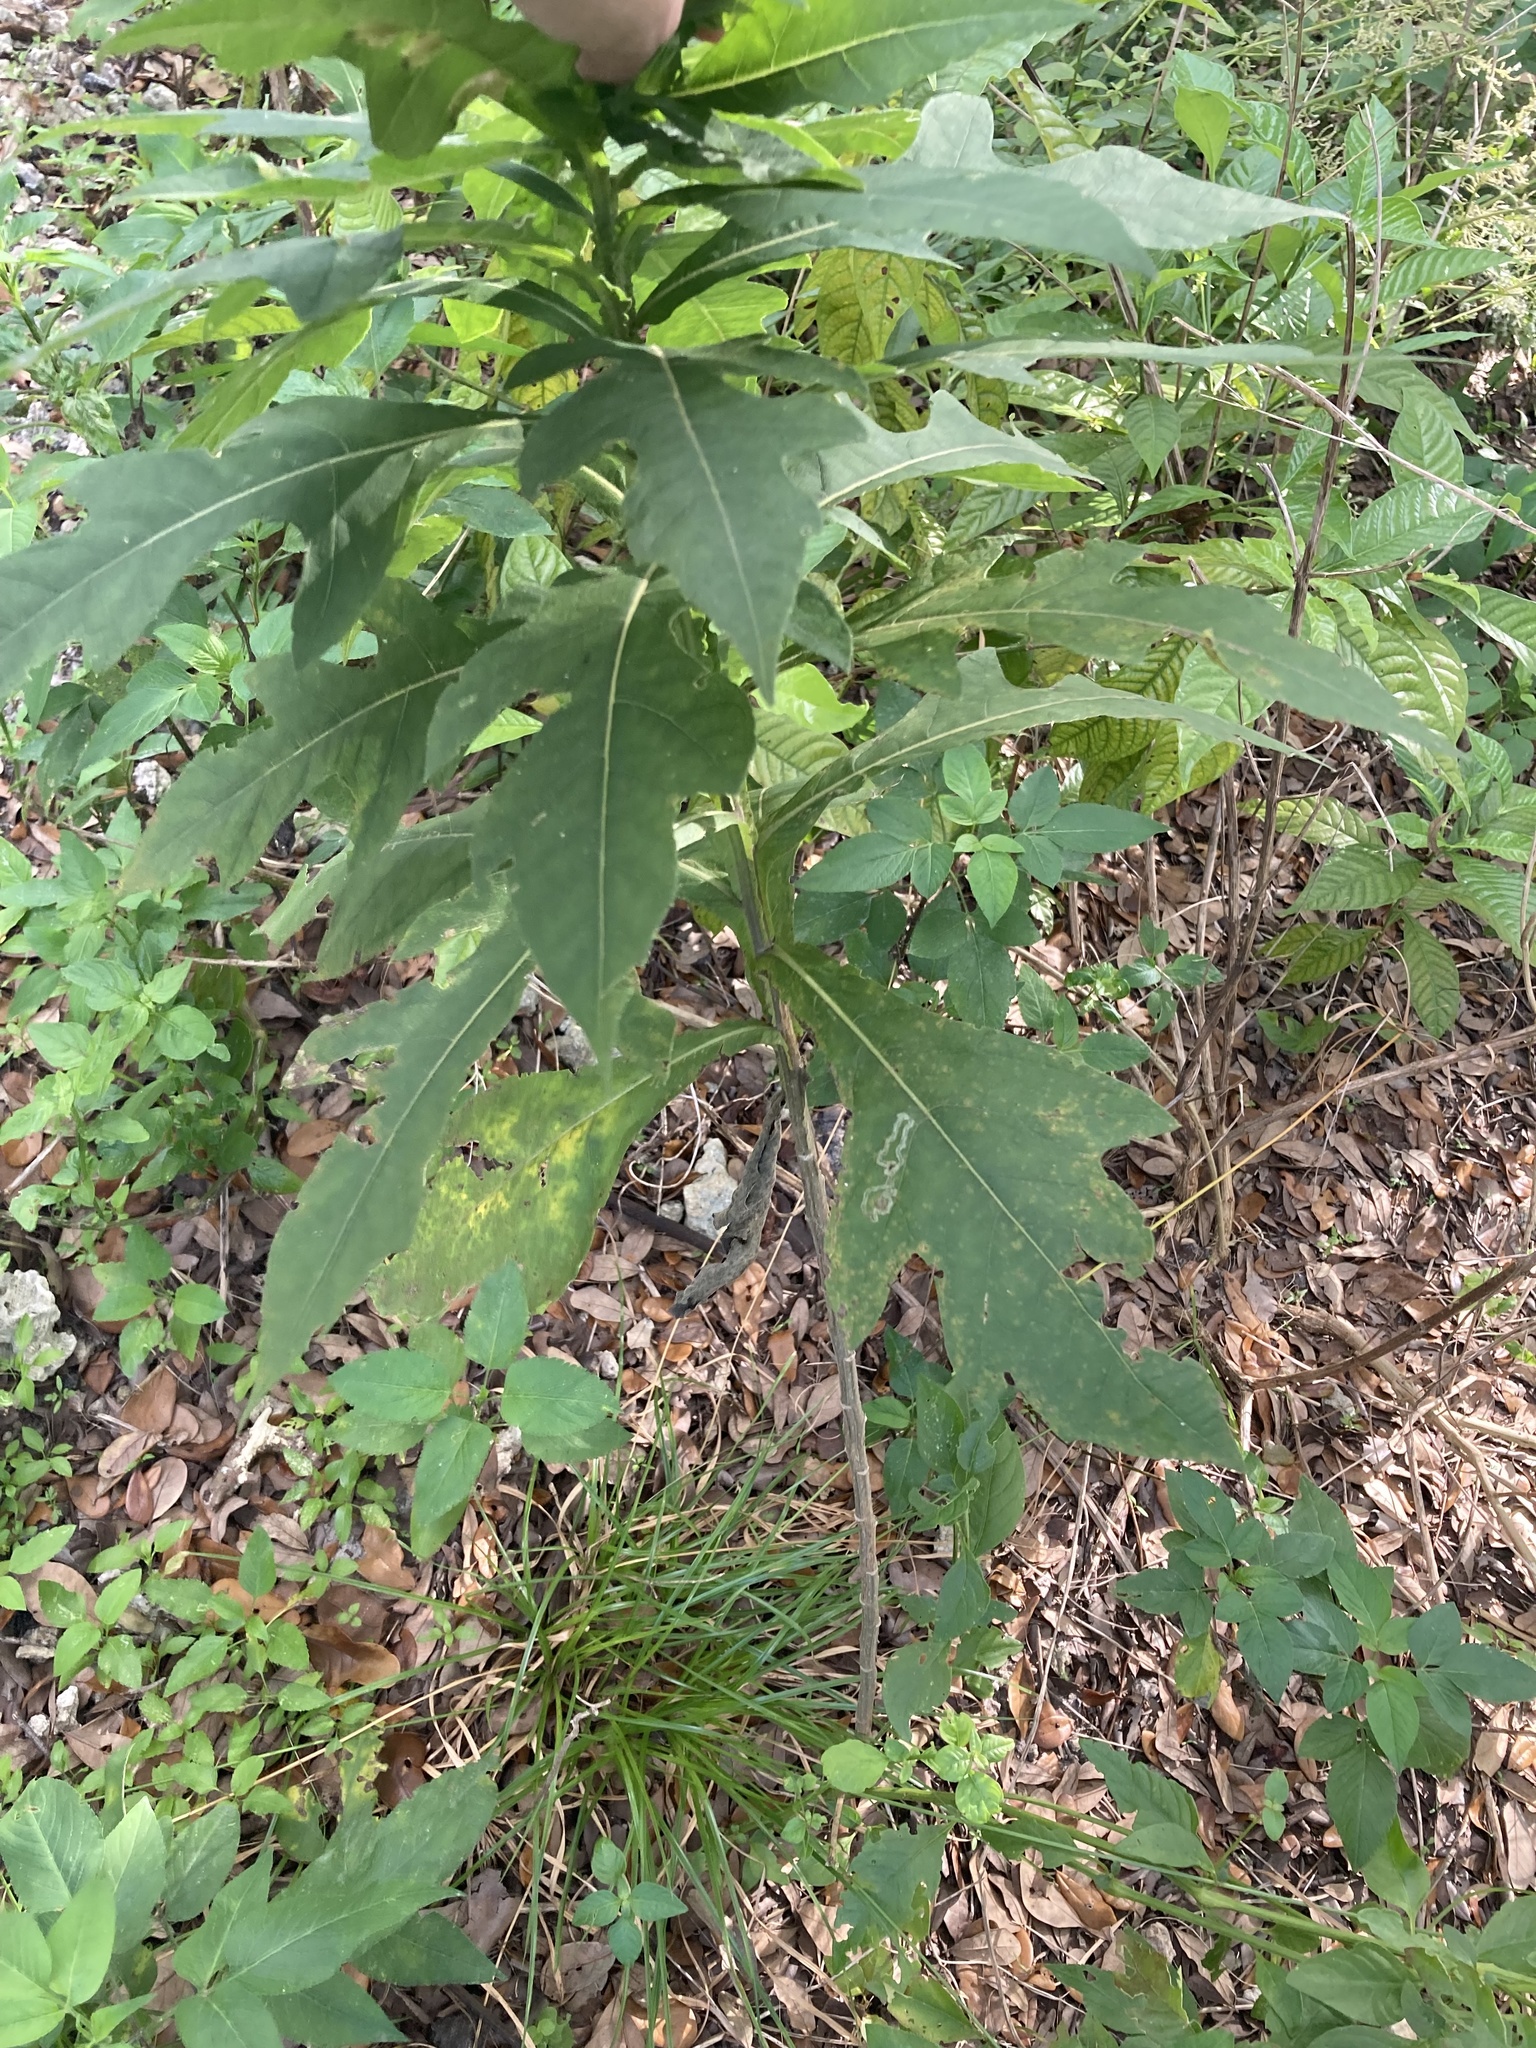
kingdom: Plantae
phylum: Tracheophyta
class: Magnoliopsida
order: Asterales
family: Asteraceae
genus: Verbesina
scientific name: Verbesina virginica
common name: Frostweed
